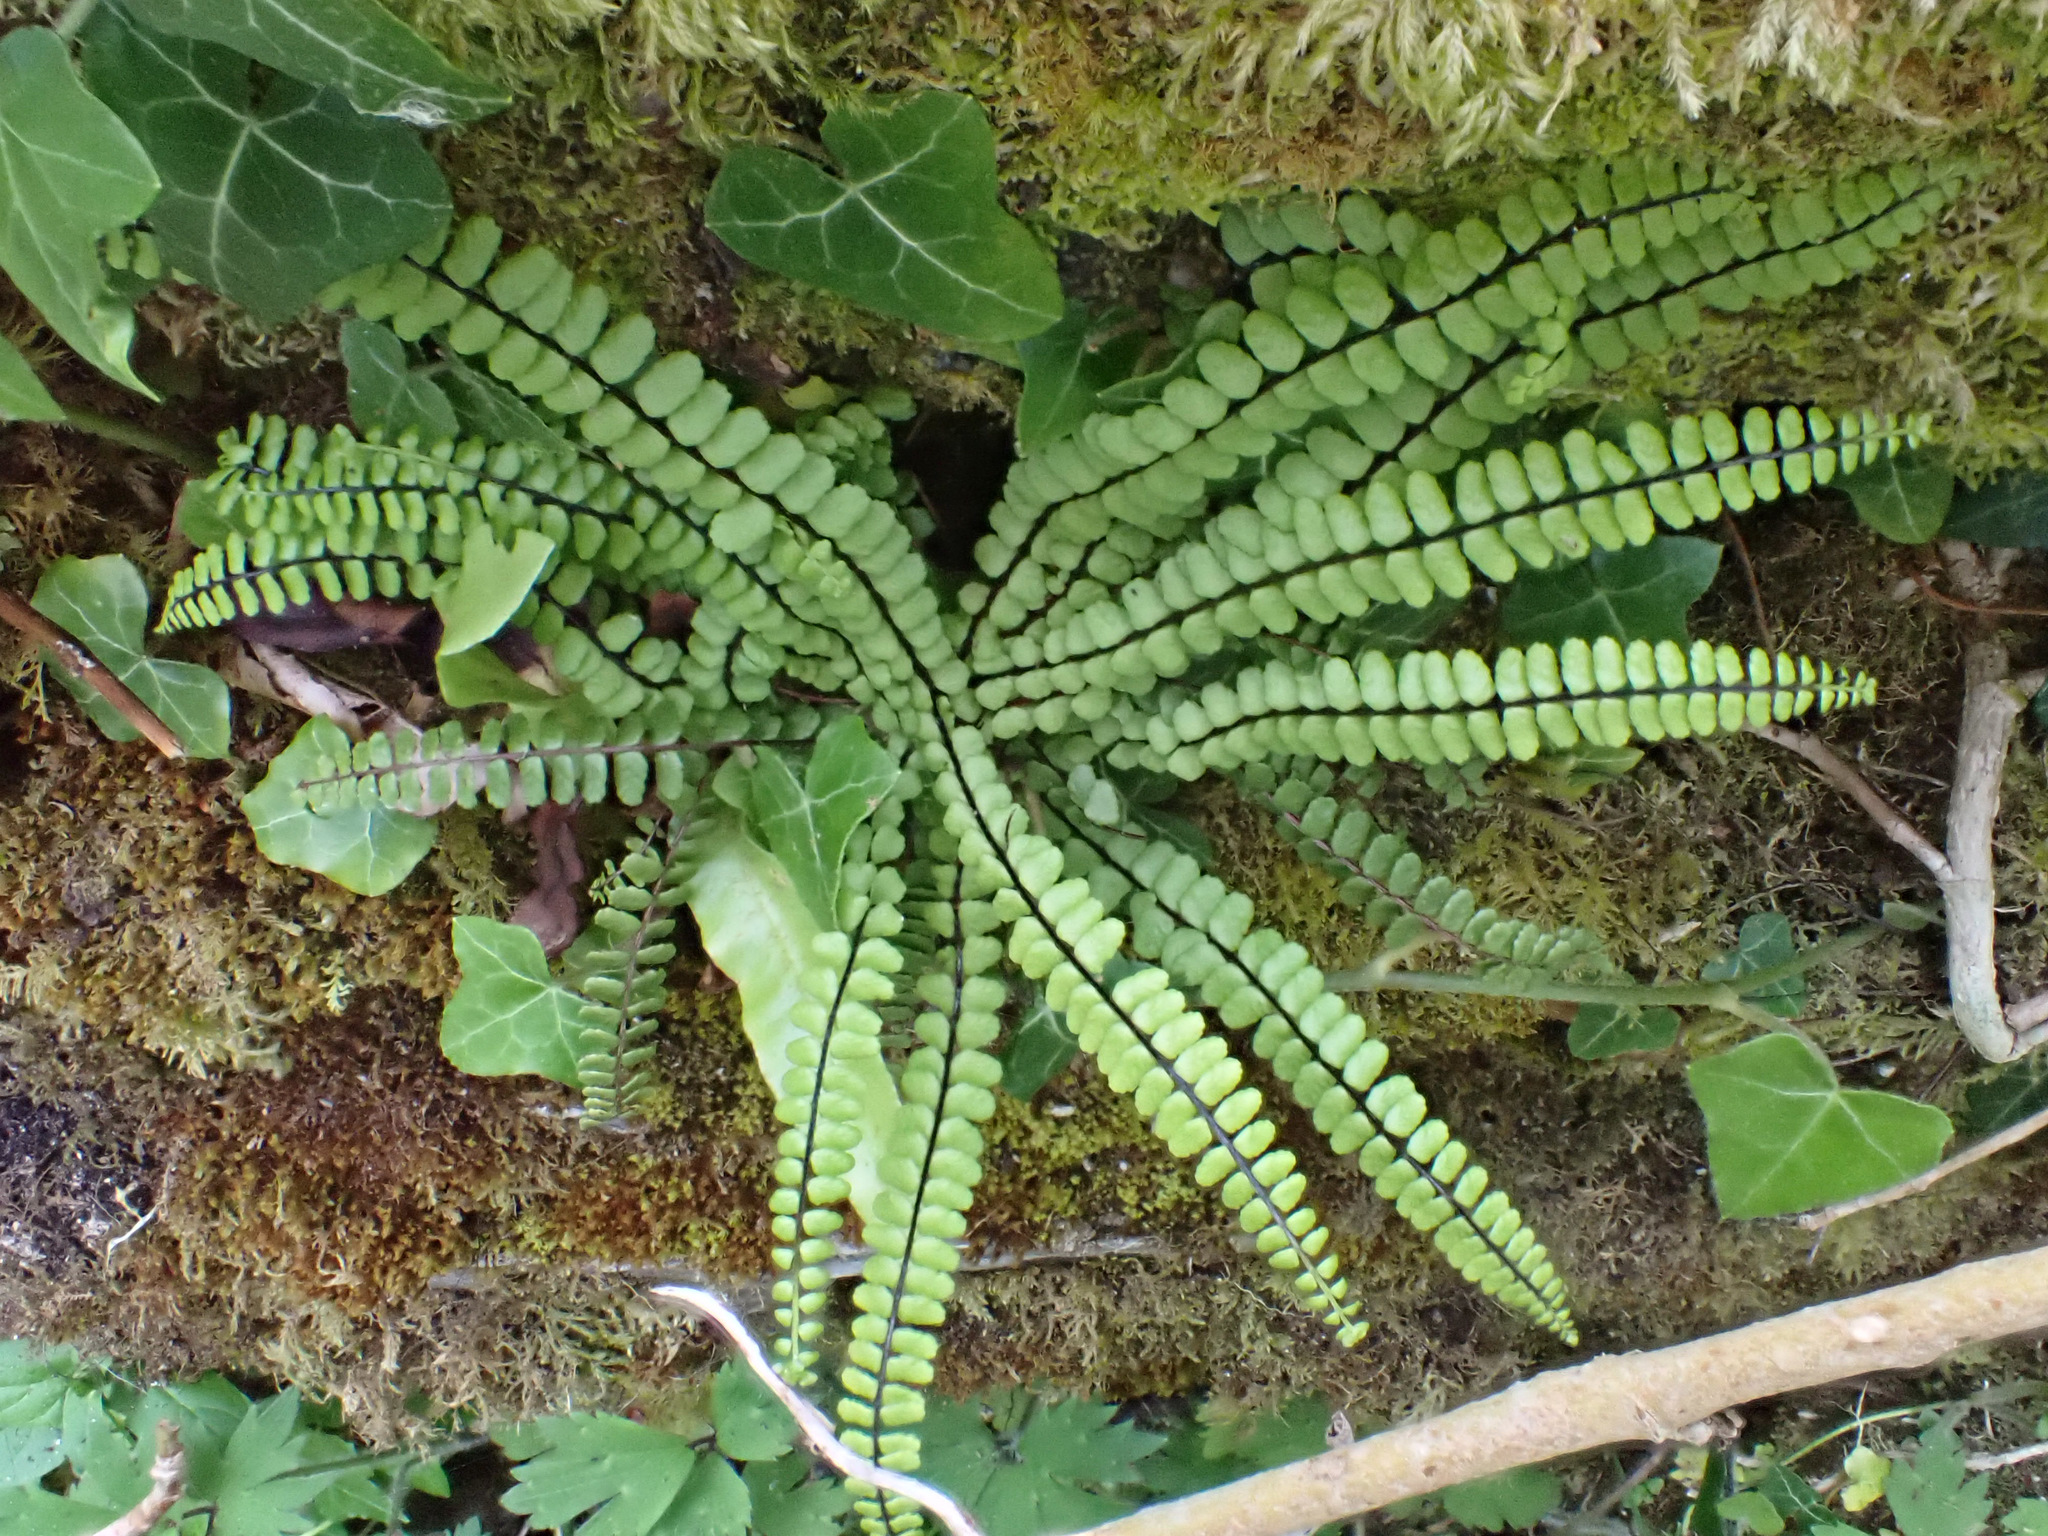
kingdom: Plantae
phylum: Tracheophyta
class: Polypodiopsida
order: Polypodiales
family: Aspleniaceae
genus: Asplenium
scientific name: Asplenium trichomanes
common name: Maidenhair spleenwort
